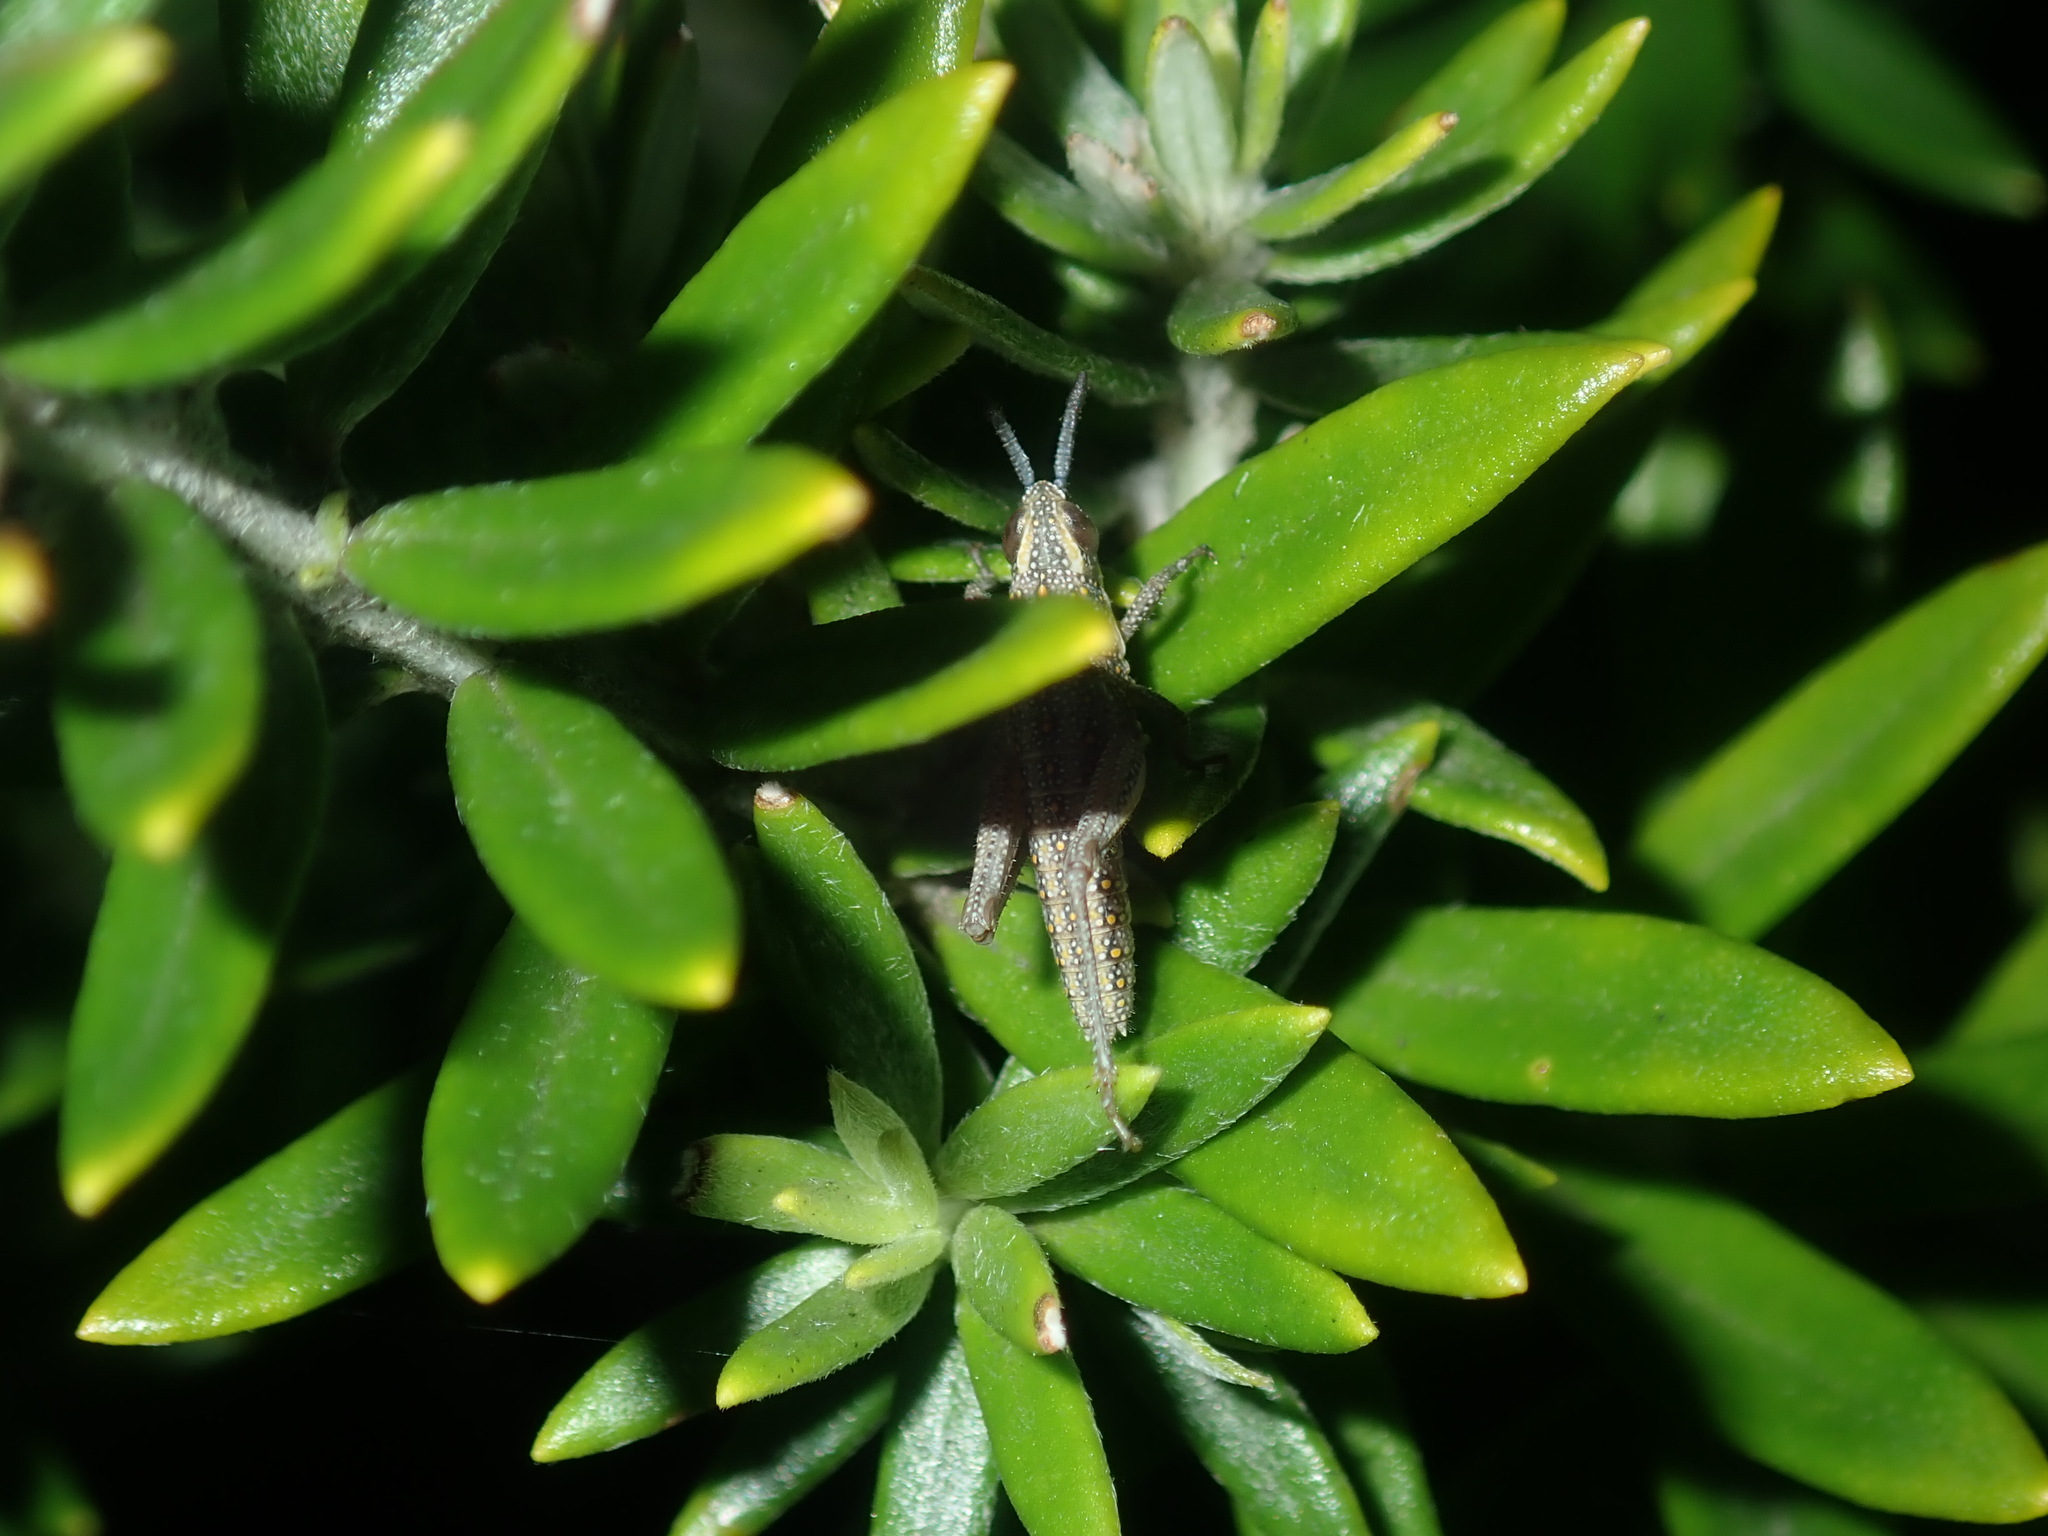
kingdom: Animalia
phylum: Arthropoda
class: Insecta
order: Orthoptera
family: Pyrgomorphidae
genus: Monistria
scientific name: Monistria concinna
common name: Southern pyrgomorph
